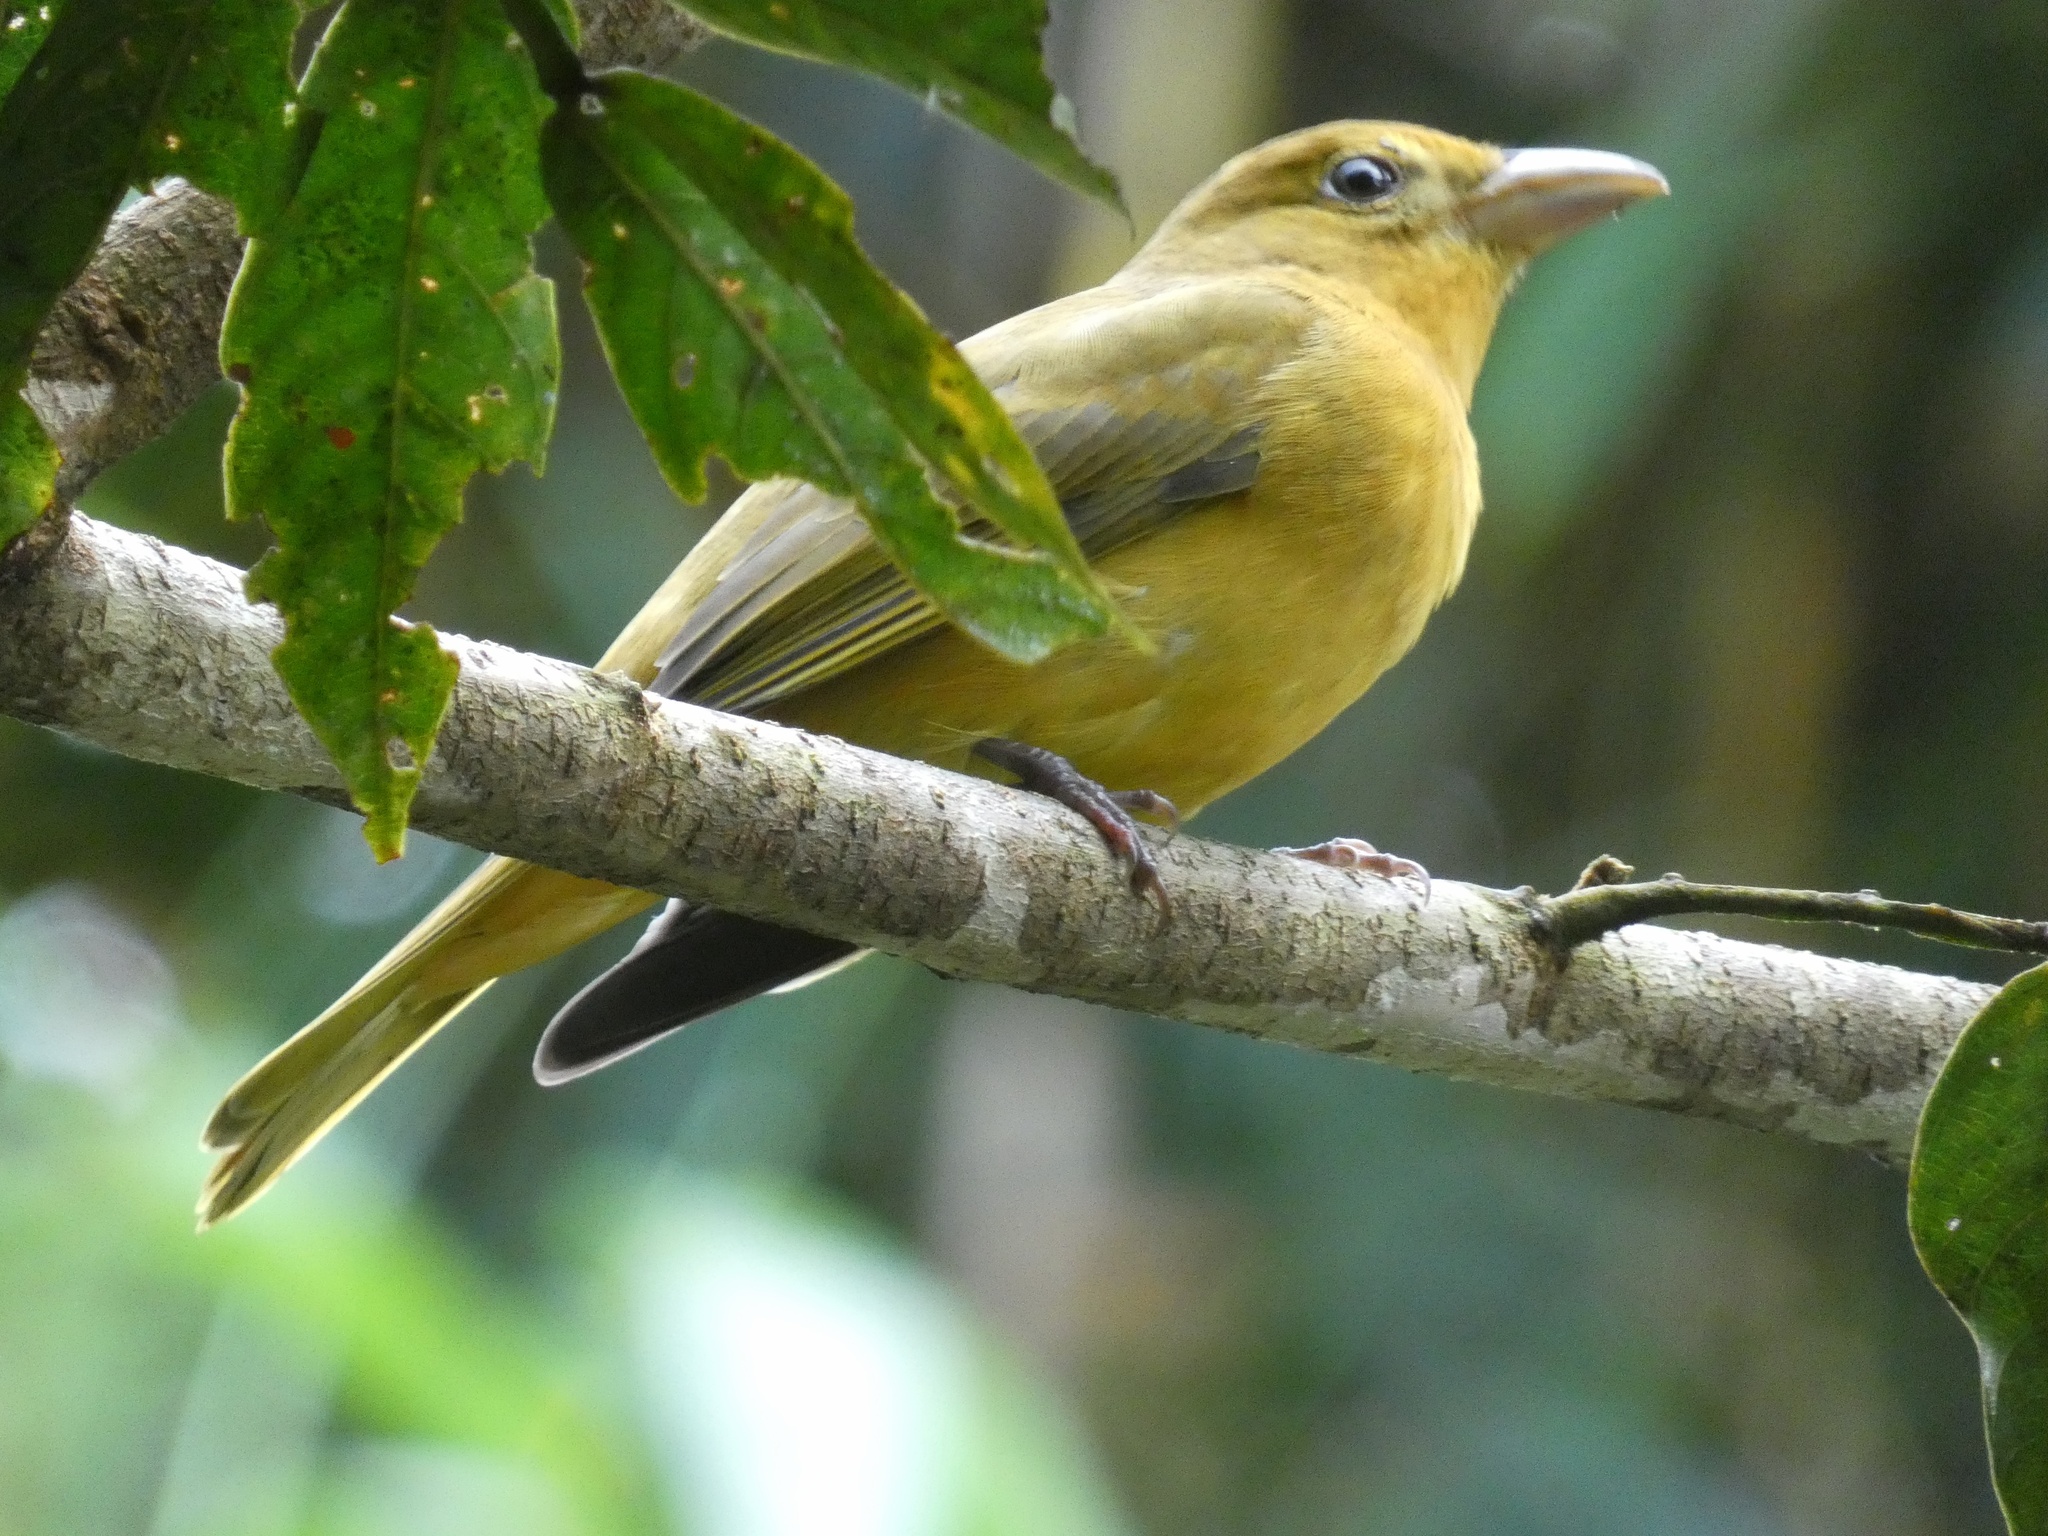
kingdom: Animalia
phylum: Chordata
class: Aves
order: Passeriformes
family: Cardinalidae
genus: Piranga
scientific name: Piranga rubra
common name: Summer tanager
